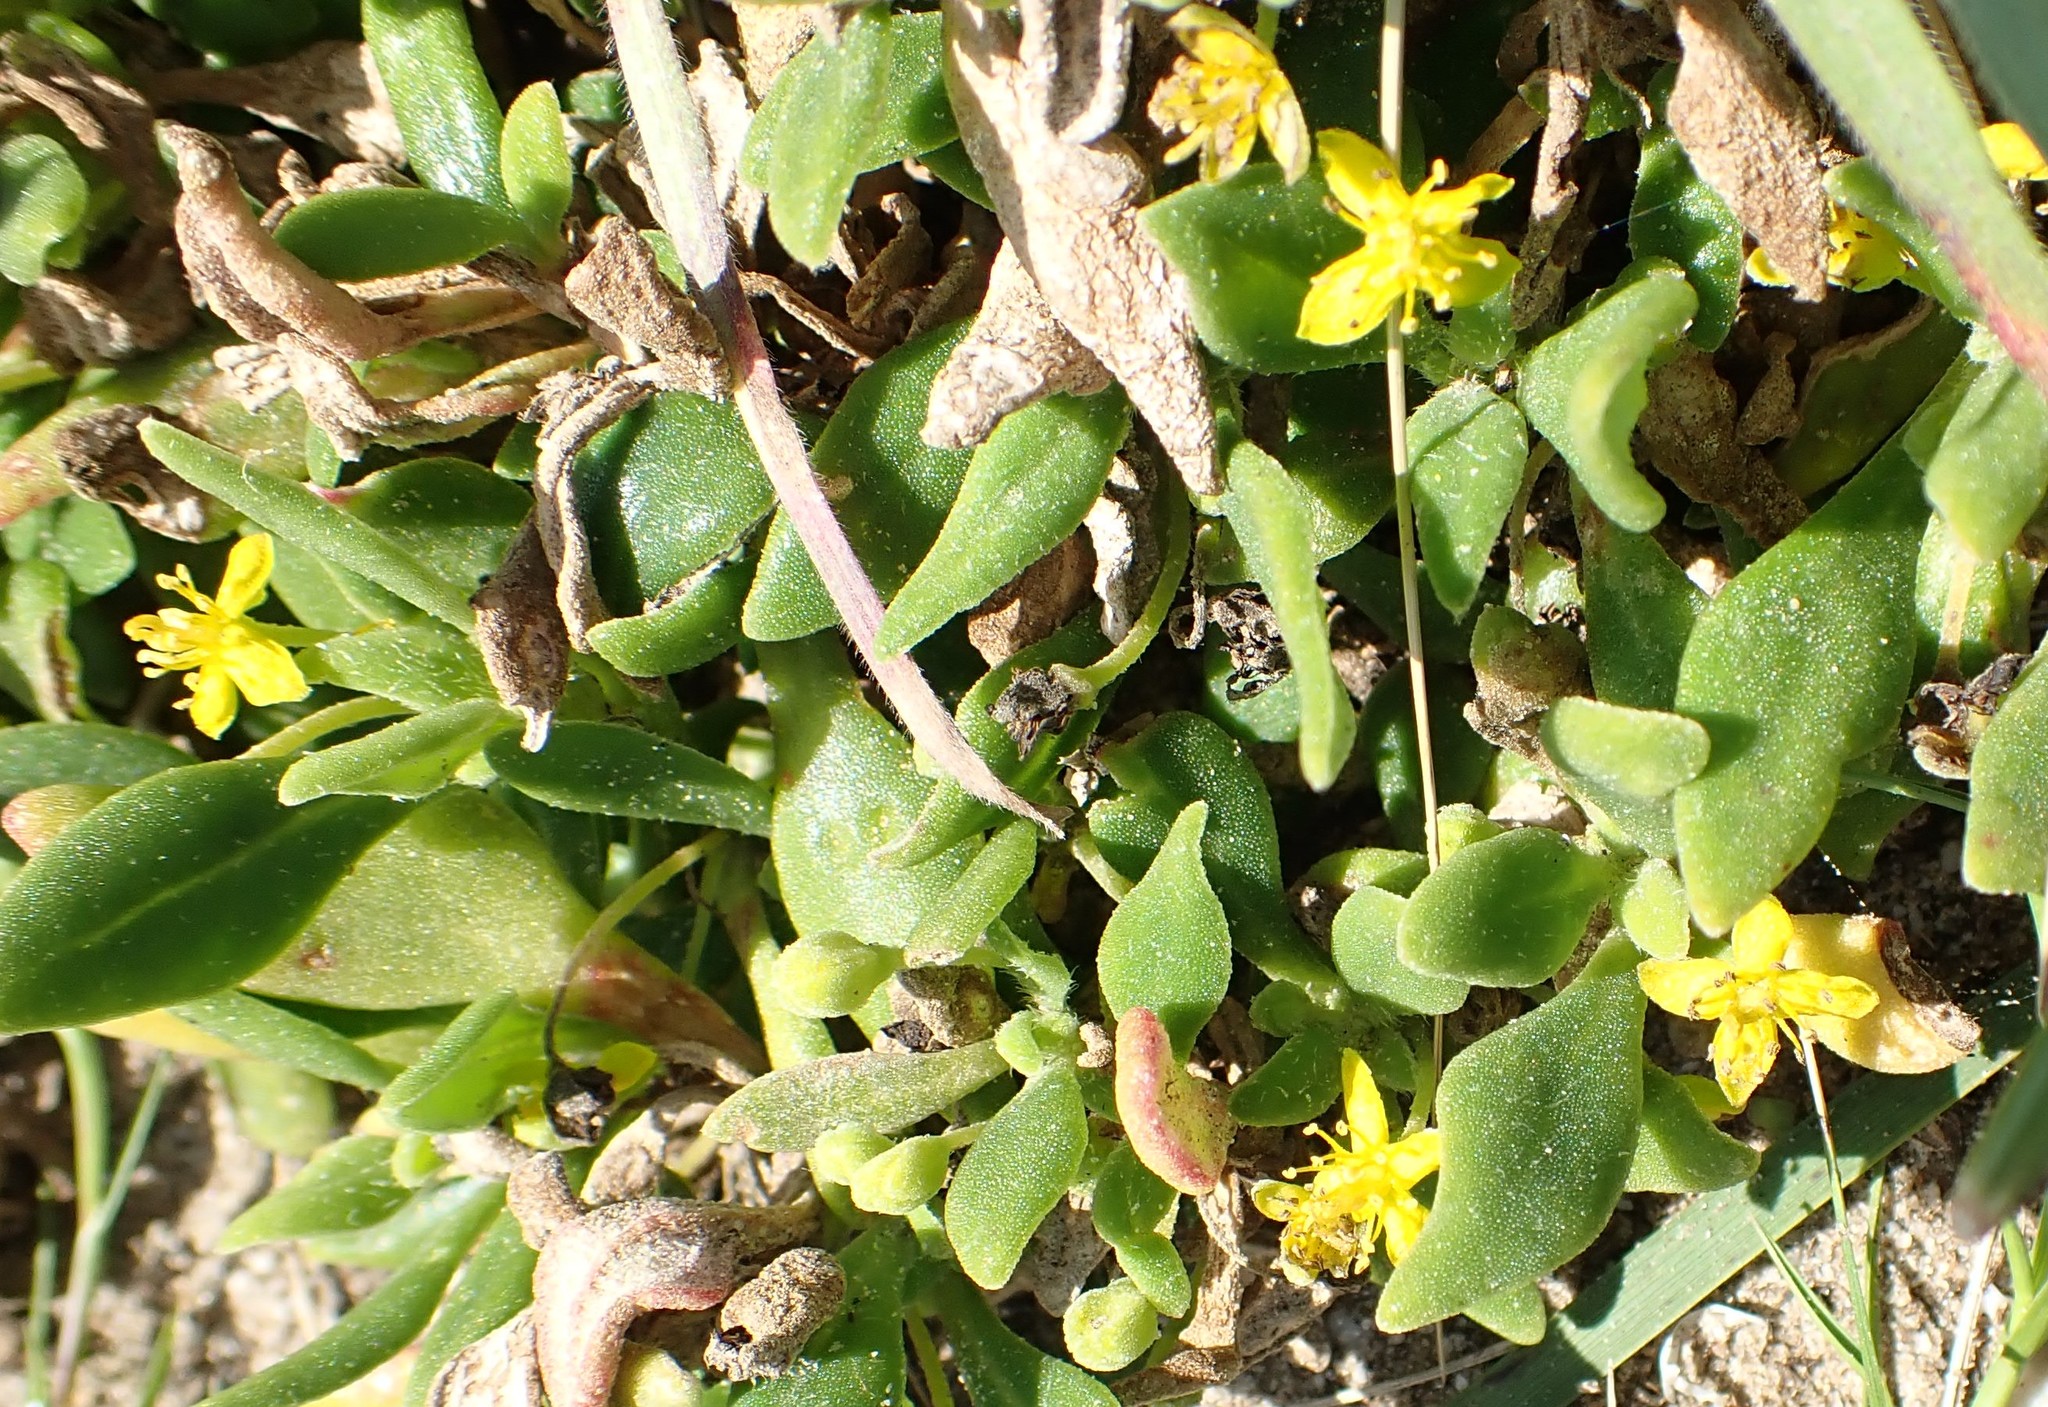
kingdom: Plantae
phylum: Tracheophyta
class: Magnoliopsida
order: Caryophyllales
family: Aizoaceae
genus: Tetragonia
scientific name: Tetragonia implexicoma
